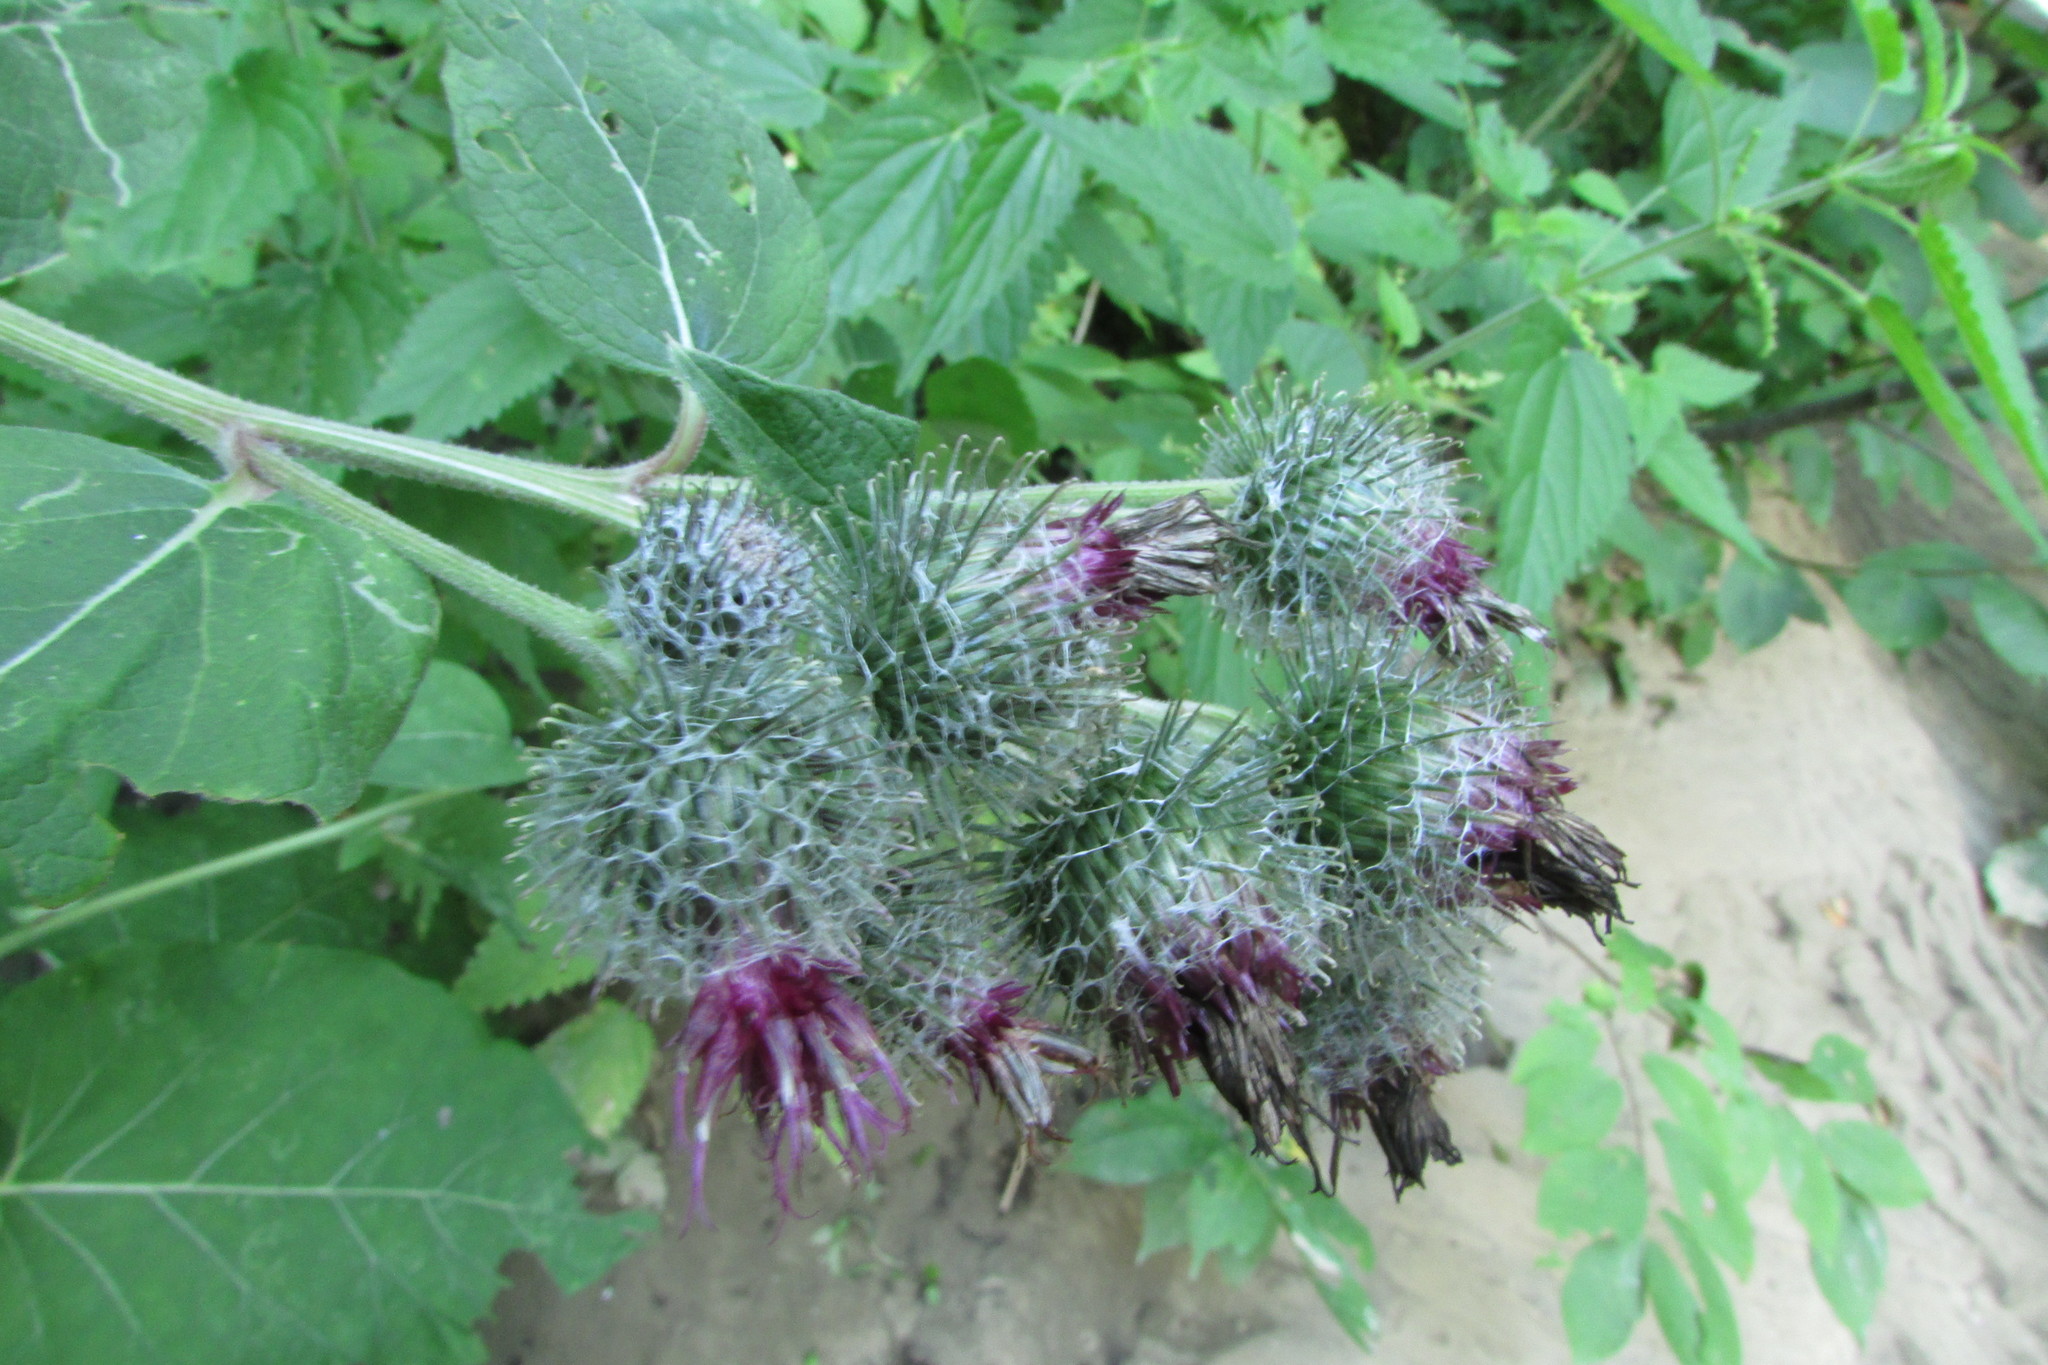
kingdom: Plantae
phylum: Tracheophyta
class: Magnoliopsida
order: Asterales
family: Asteraceae
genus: Arctium
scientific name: Arctium tomentosum
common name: Woolly burdock
